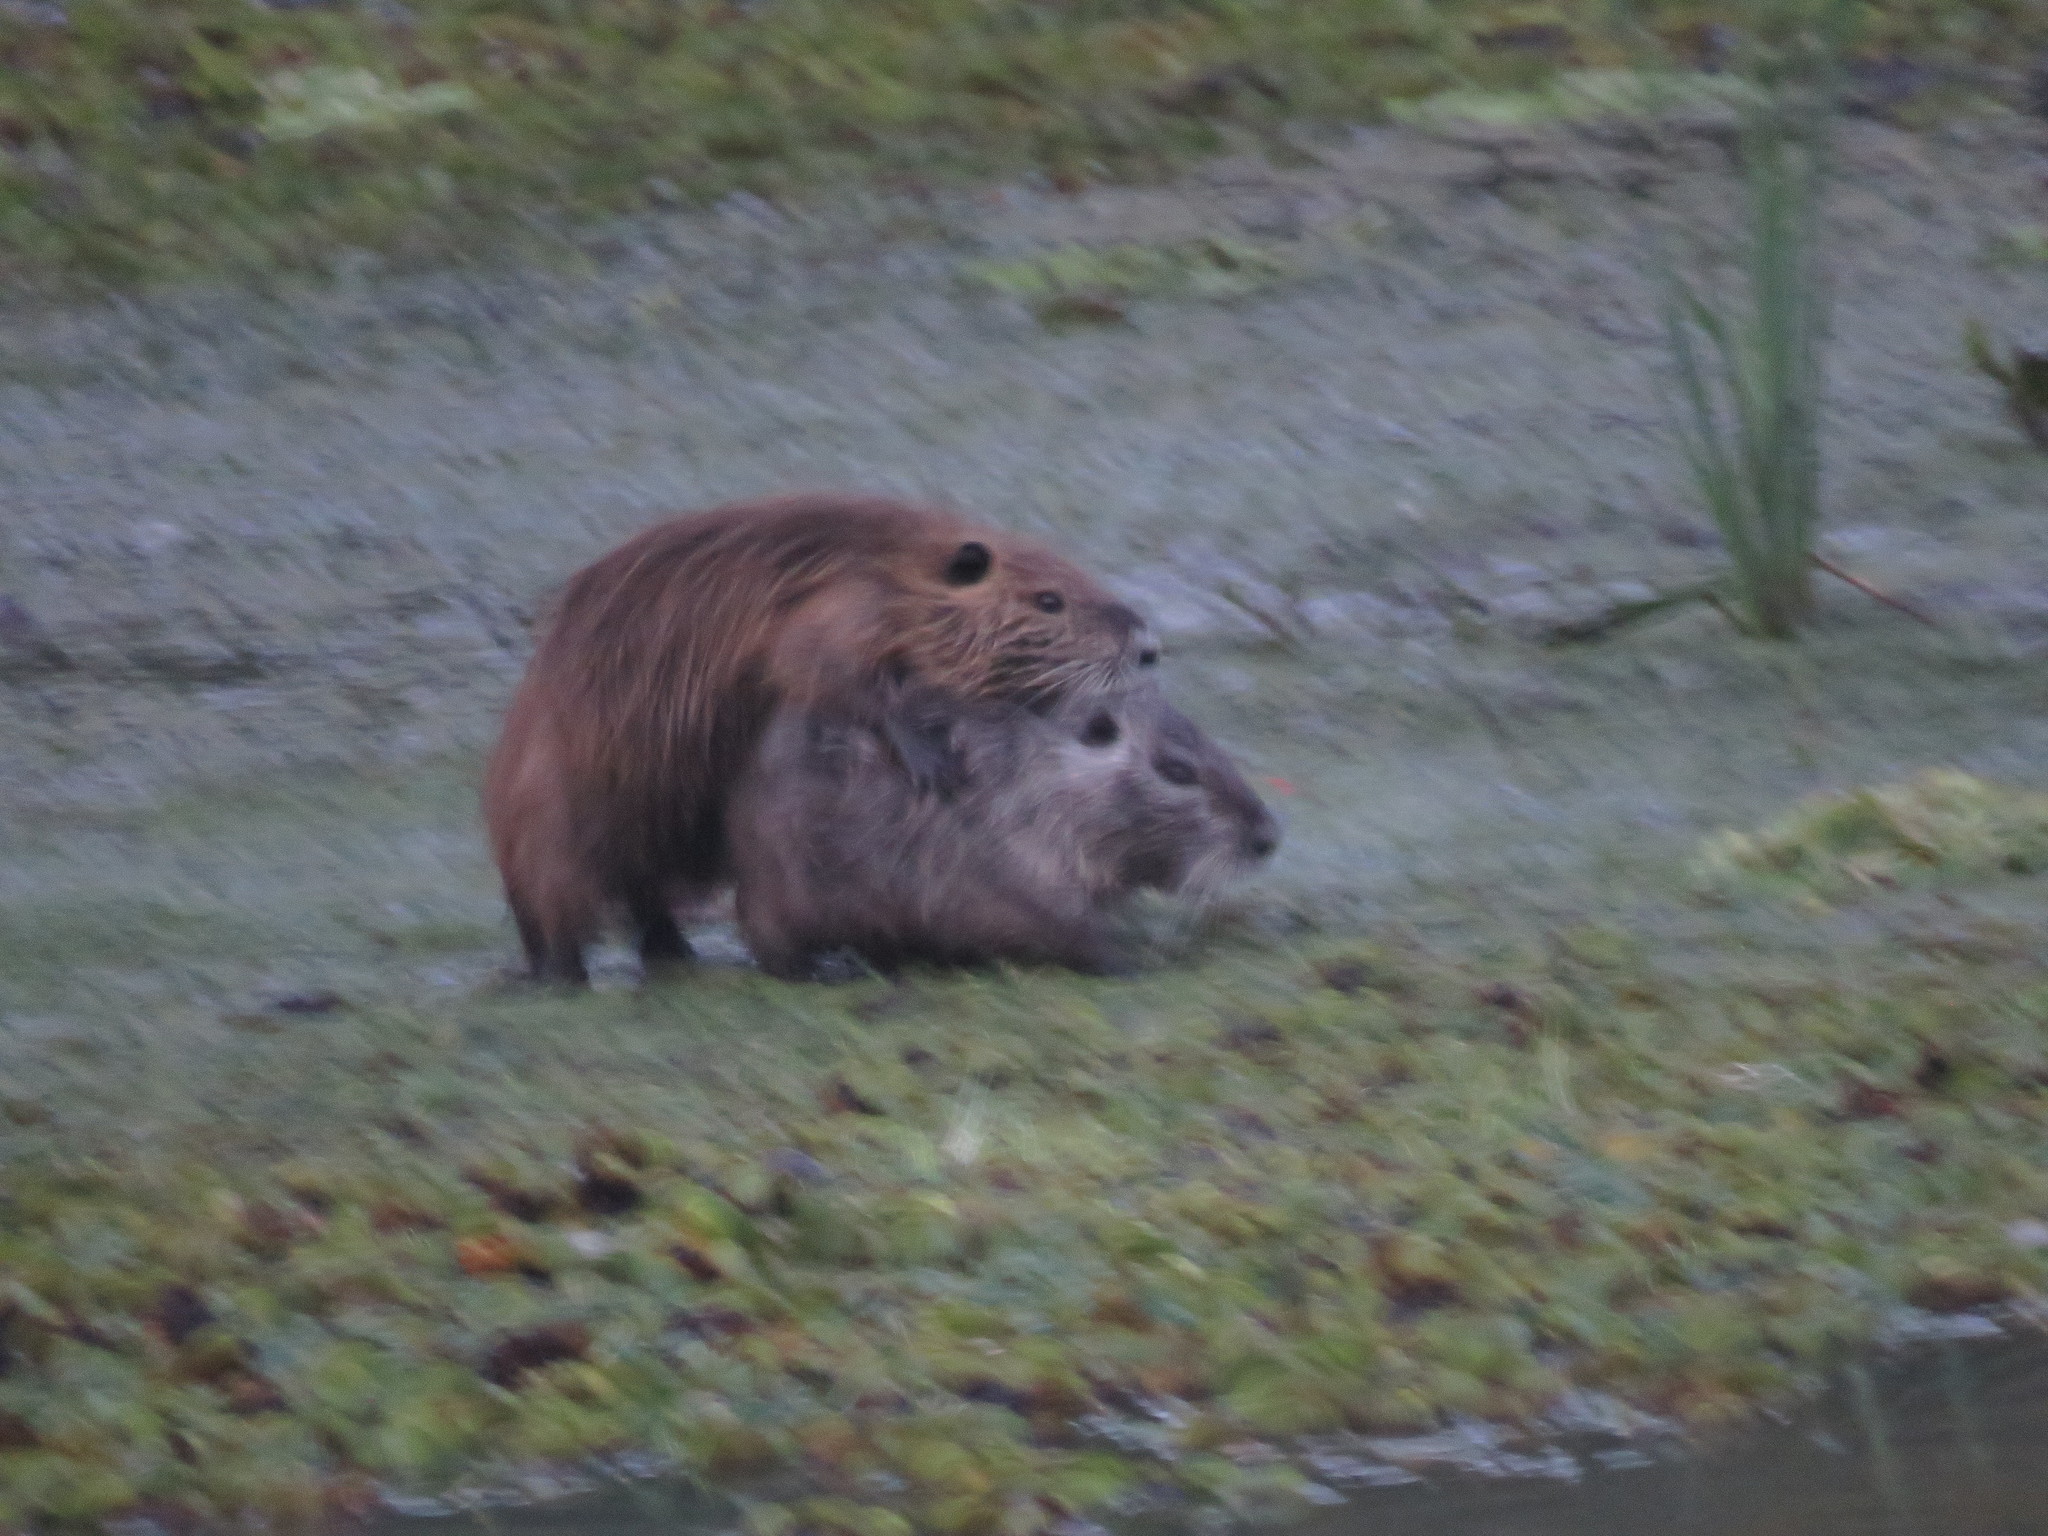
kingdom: Animalia
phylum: Chordata
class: Mammalia
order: Rodentia
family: Myocastoridae
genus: Myocastor
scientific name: Myocastor coypus
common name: Coypu
